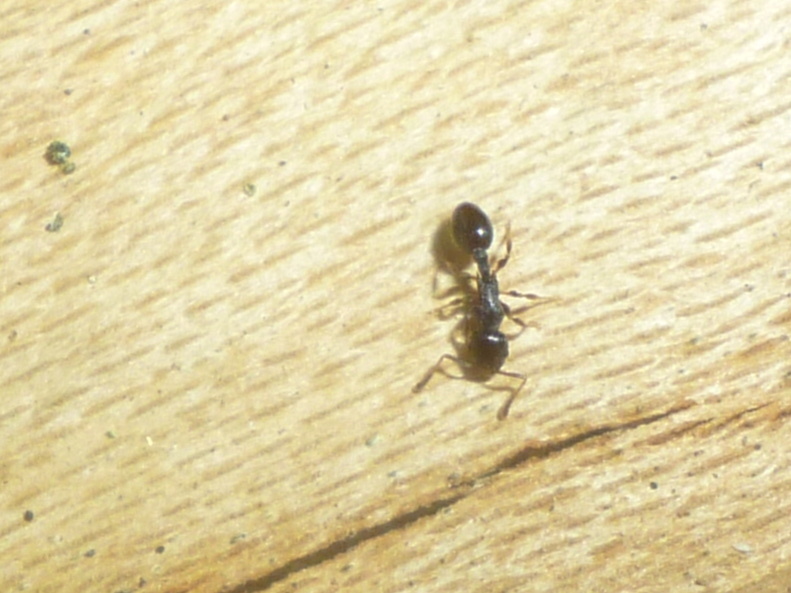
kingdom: Animalia
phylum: Arthropoda
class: Insecta
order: Hymenoptera
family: Formicidae
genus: Temnothorax
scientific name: Temnothorax longispinosus
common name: Long-spined acorn ant
